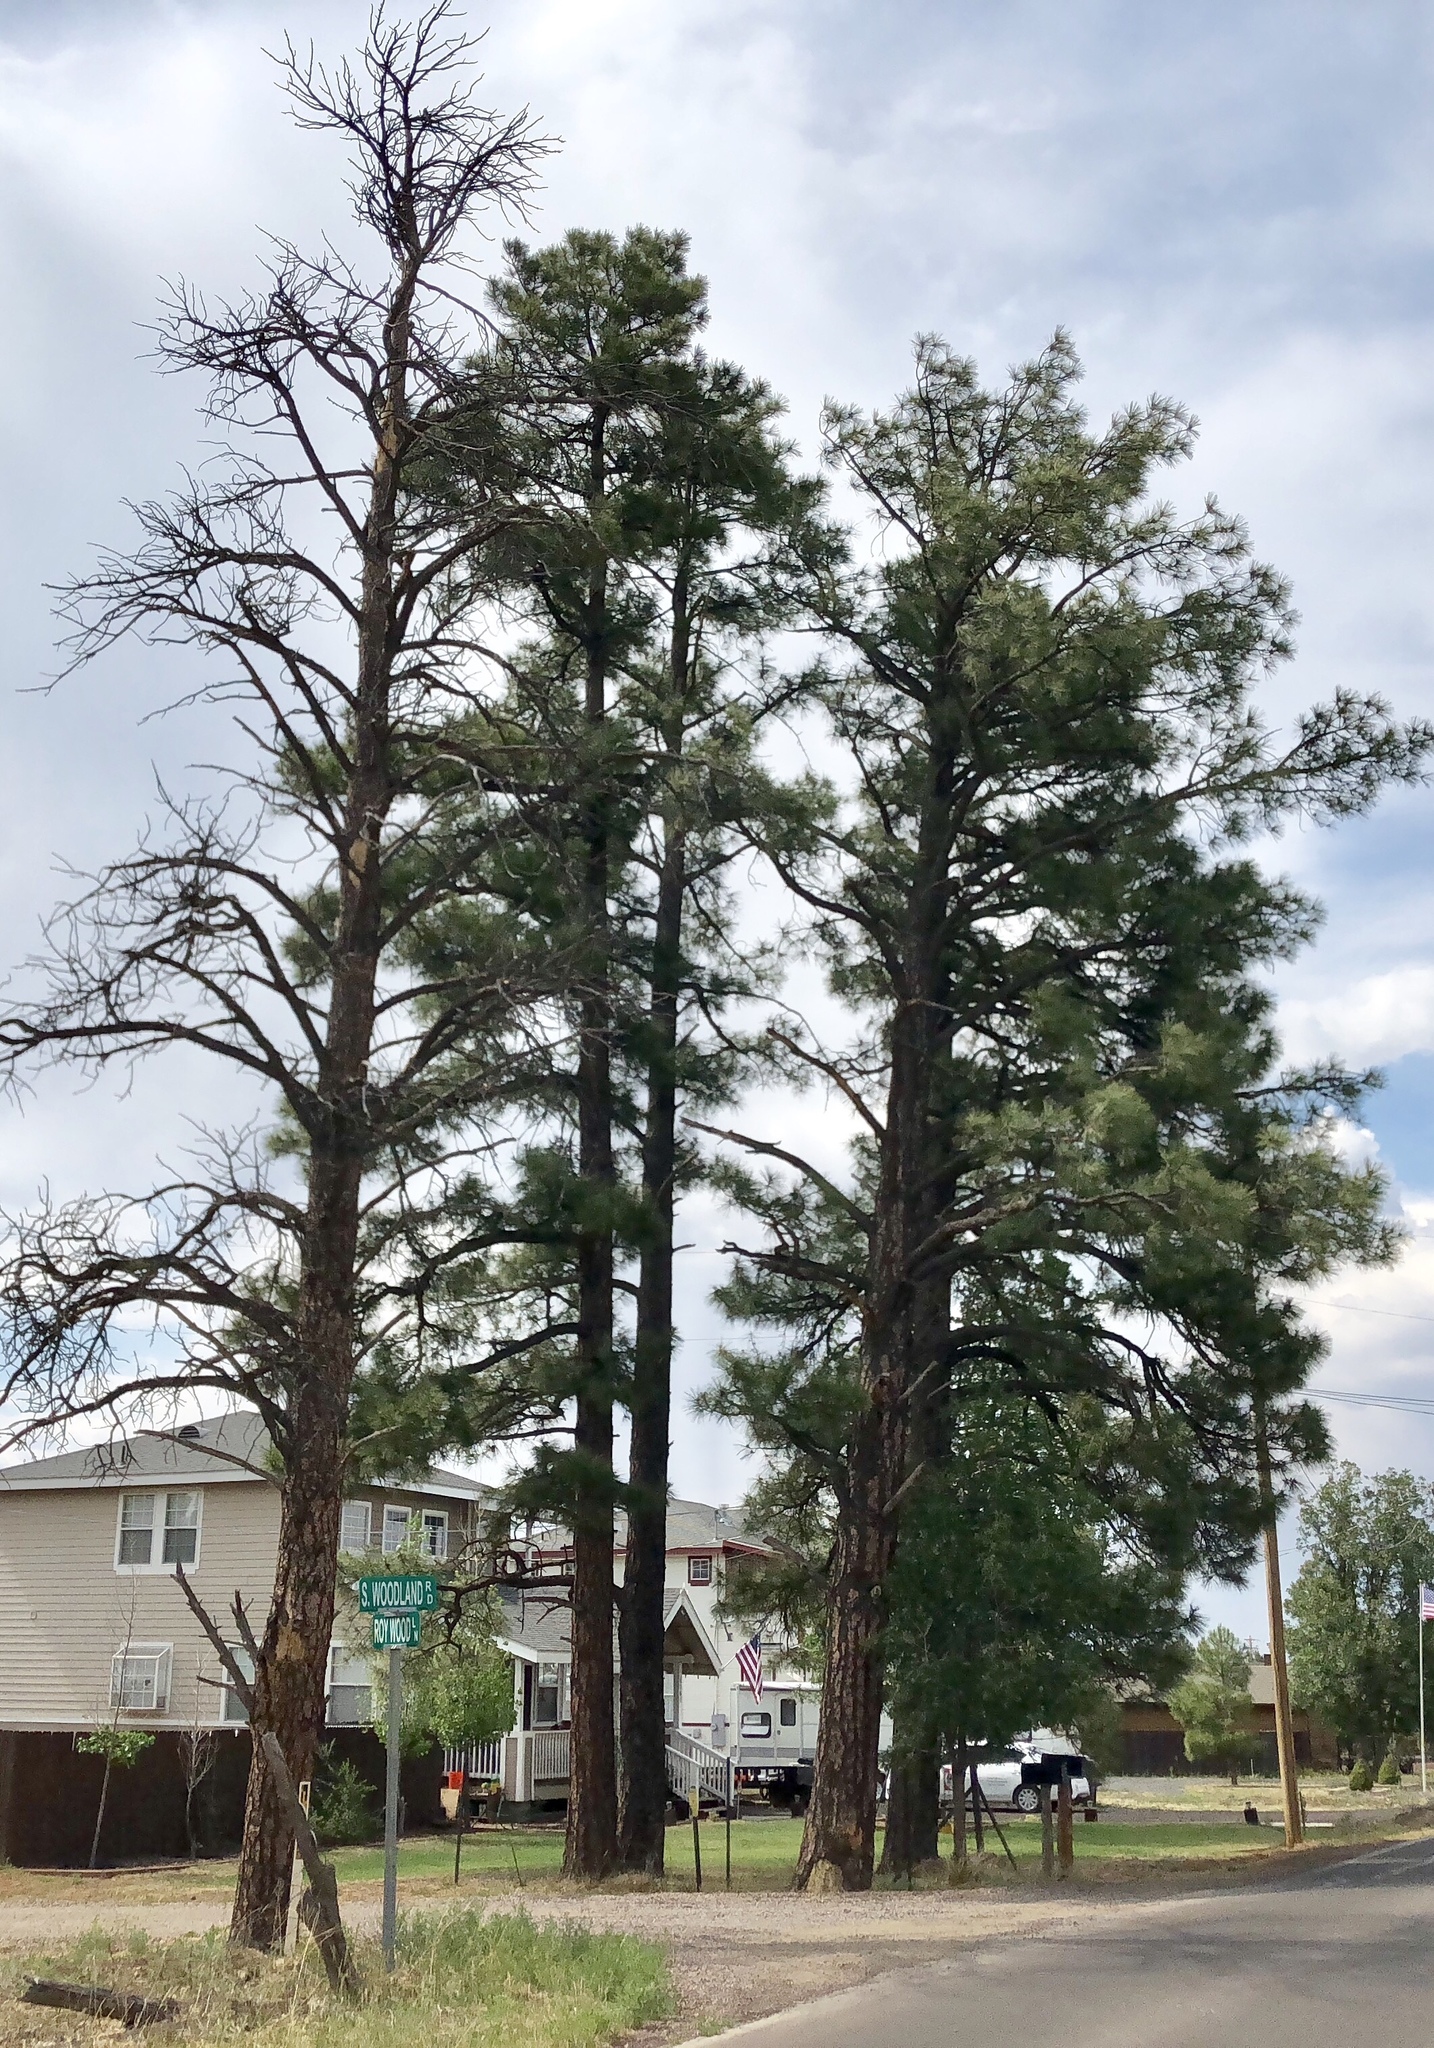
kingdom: Plantae
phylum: Tracheophyta
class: Pinopsida
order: Pinales
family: Pinaceae
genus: Pinus
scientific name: Pinus ponderosa
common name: Western yellow-pine
